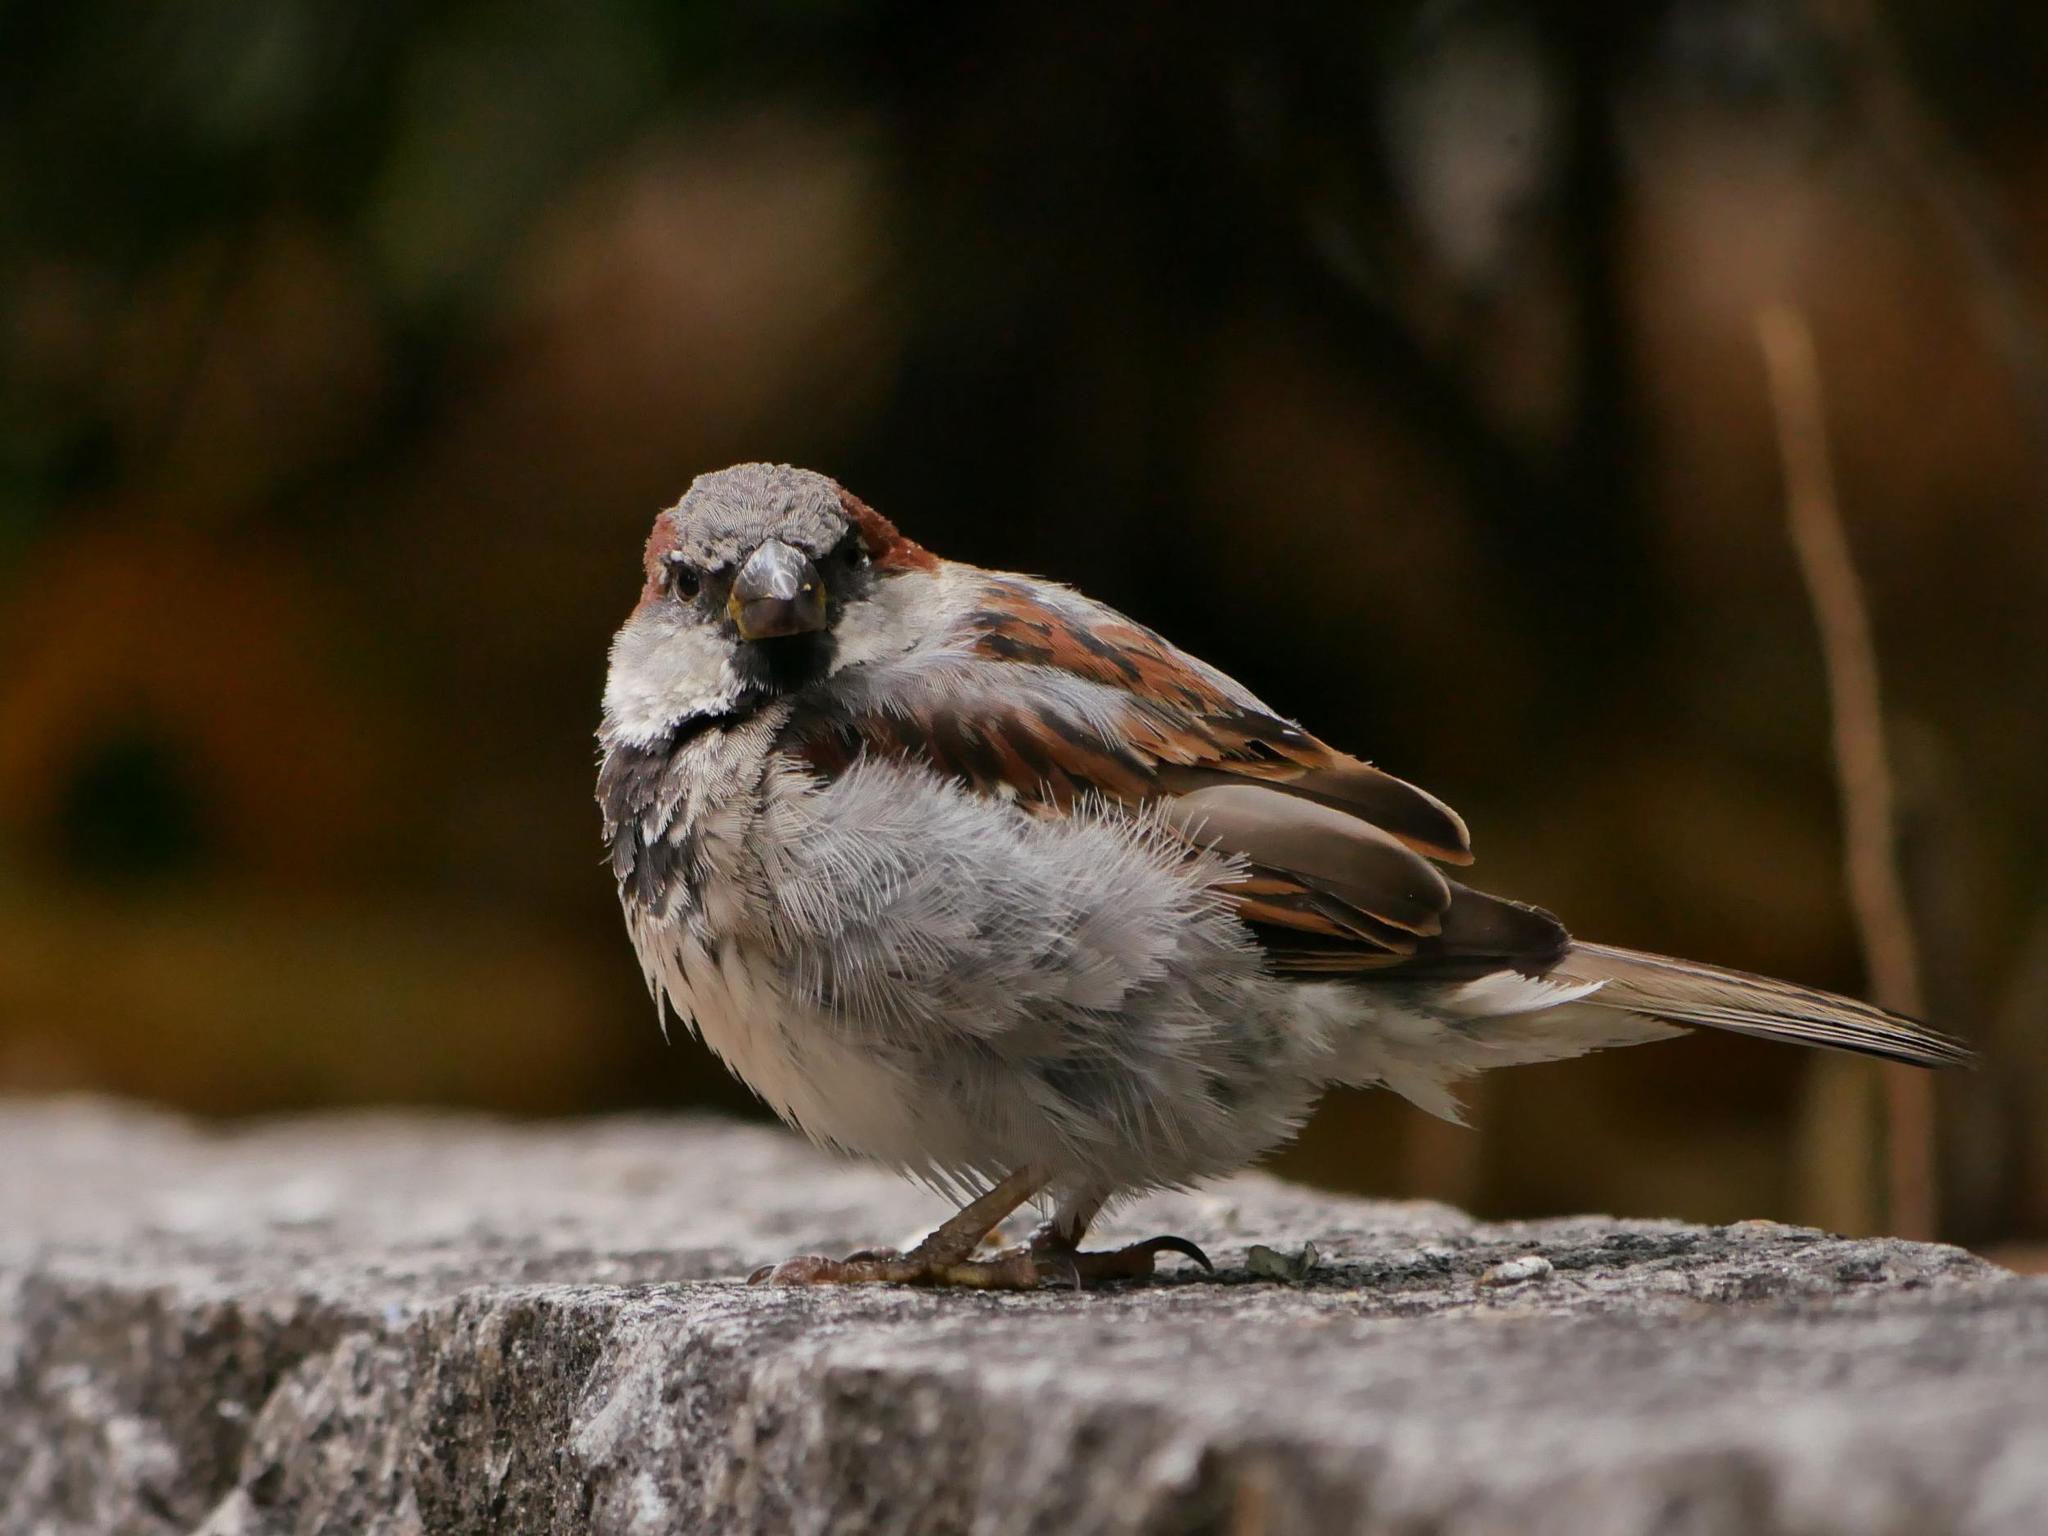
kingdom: Animalia
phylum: Chordata
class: Aves
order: Passeriformes
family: Passeridae
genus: Passer
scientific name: Passer domesticus
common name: House sparrow
